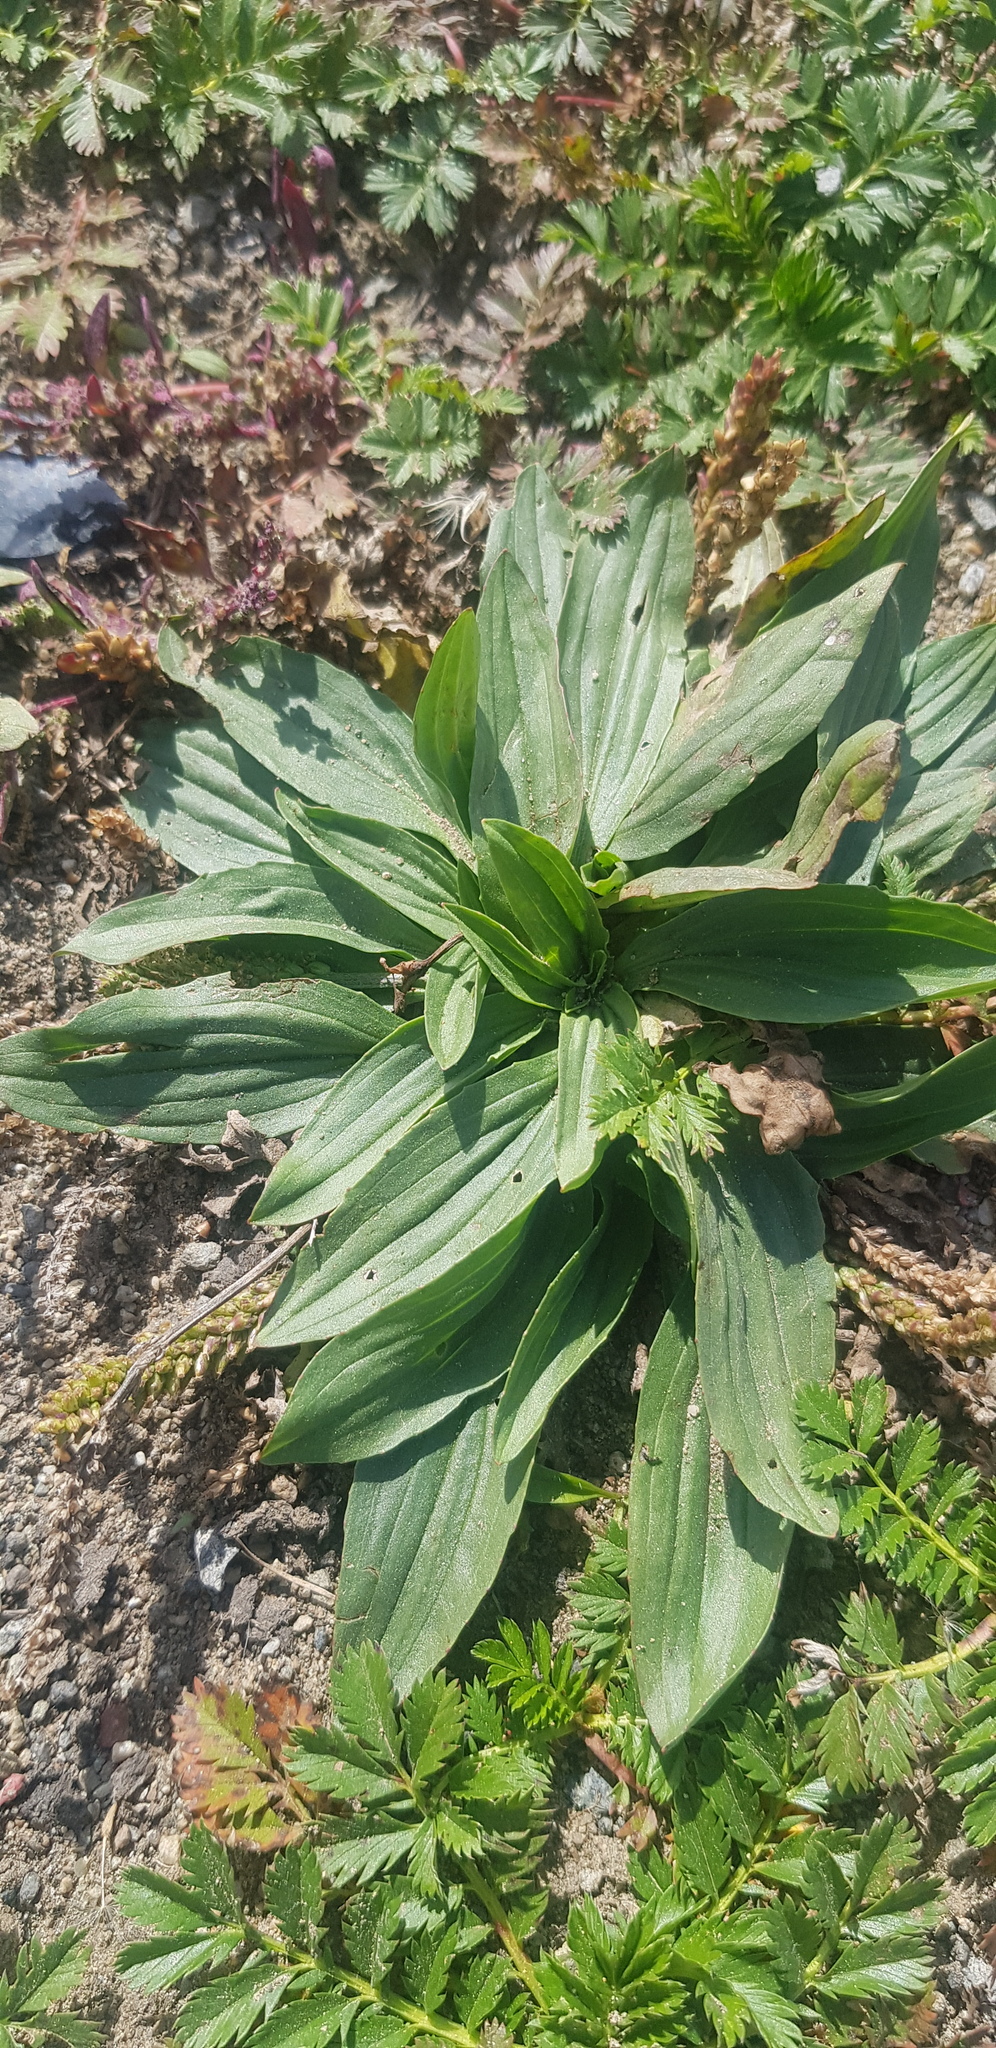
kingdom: Plantae
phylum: Tracheophyta
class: Magnoliopsida
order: Lamiales
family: Plantaginaceae
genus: Plantago
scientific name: Plantago media
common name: Hoary plantain
